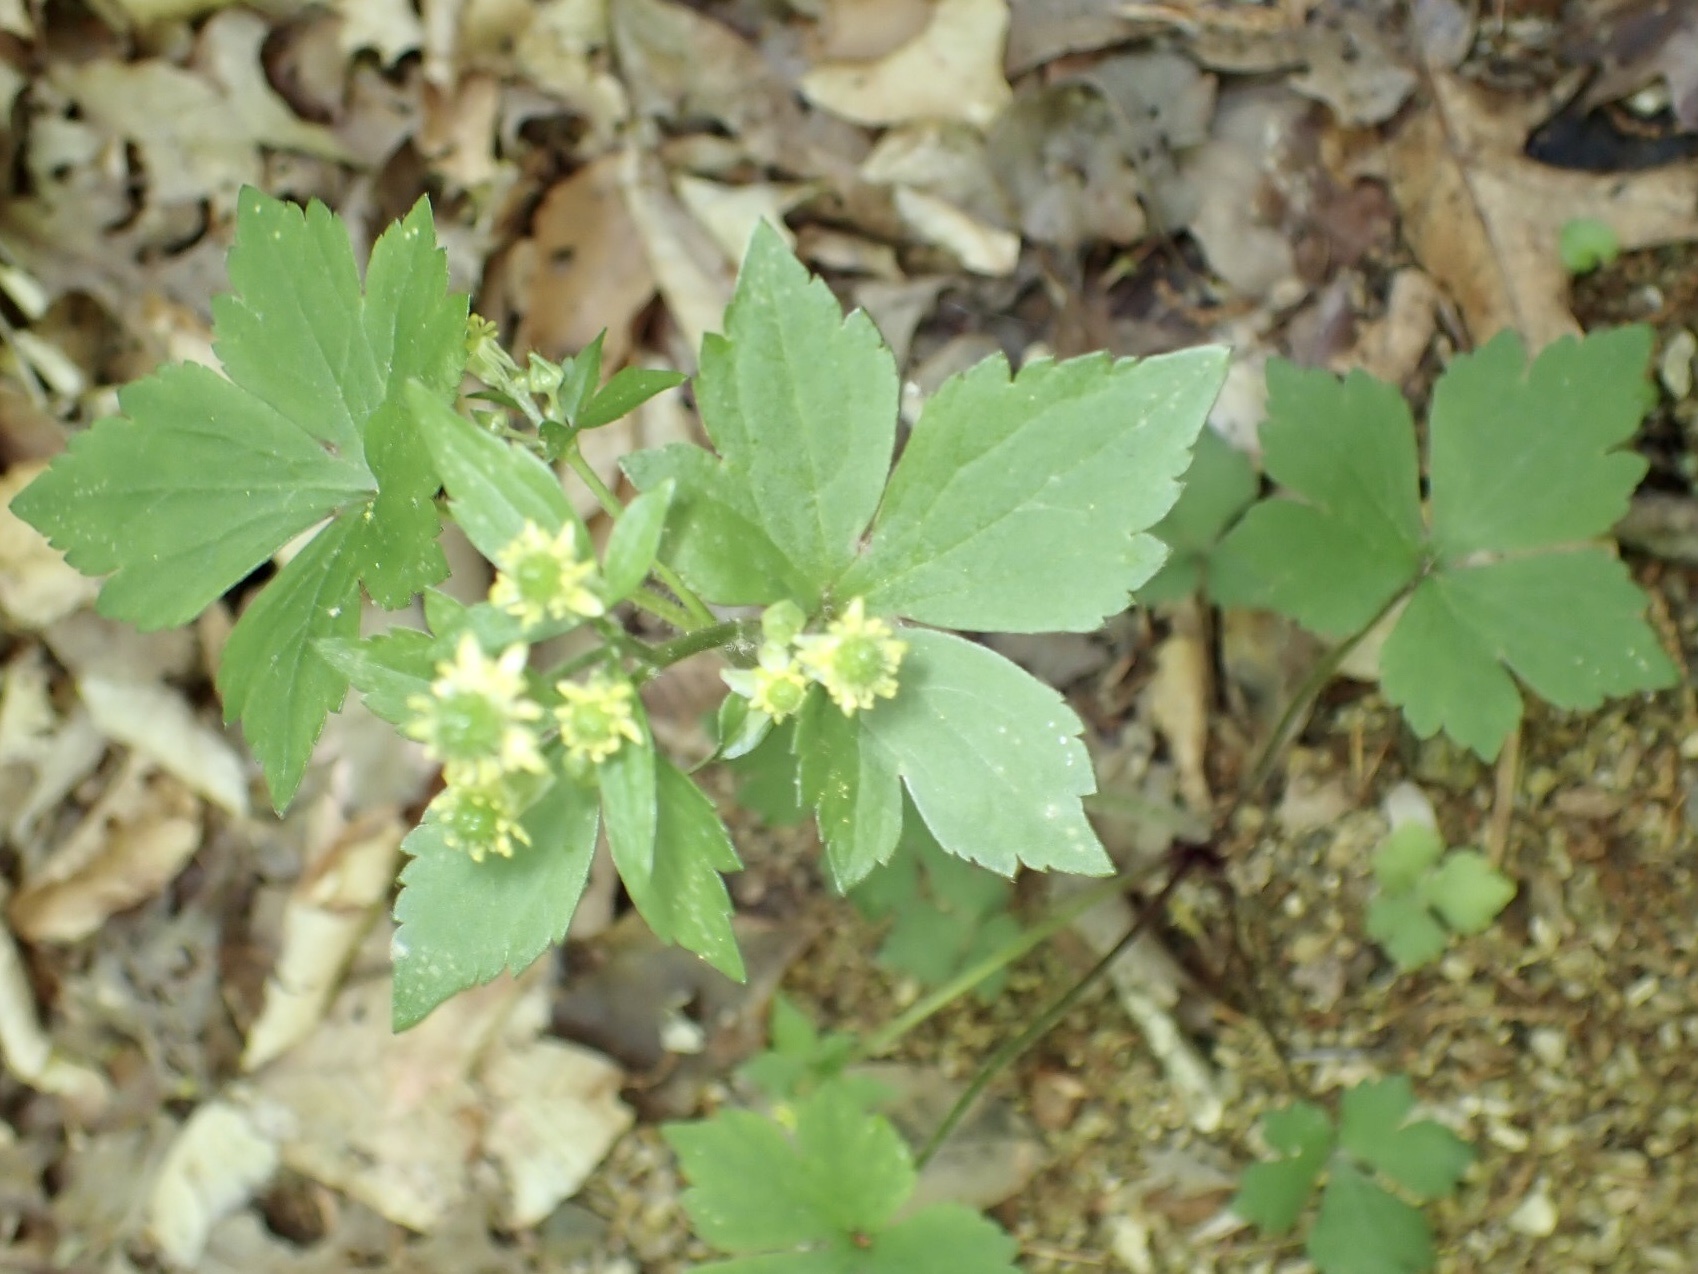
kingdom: Plantae
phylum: Tracheophyta
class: Magnoliopsida
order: Ranunculales
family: Ranunculaceae
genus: Ranunculus
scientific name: Ranunculus recurvatus
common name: Blisterwort
